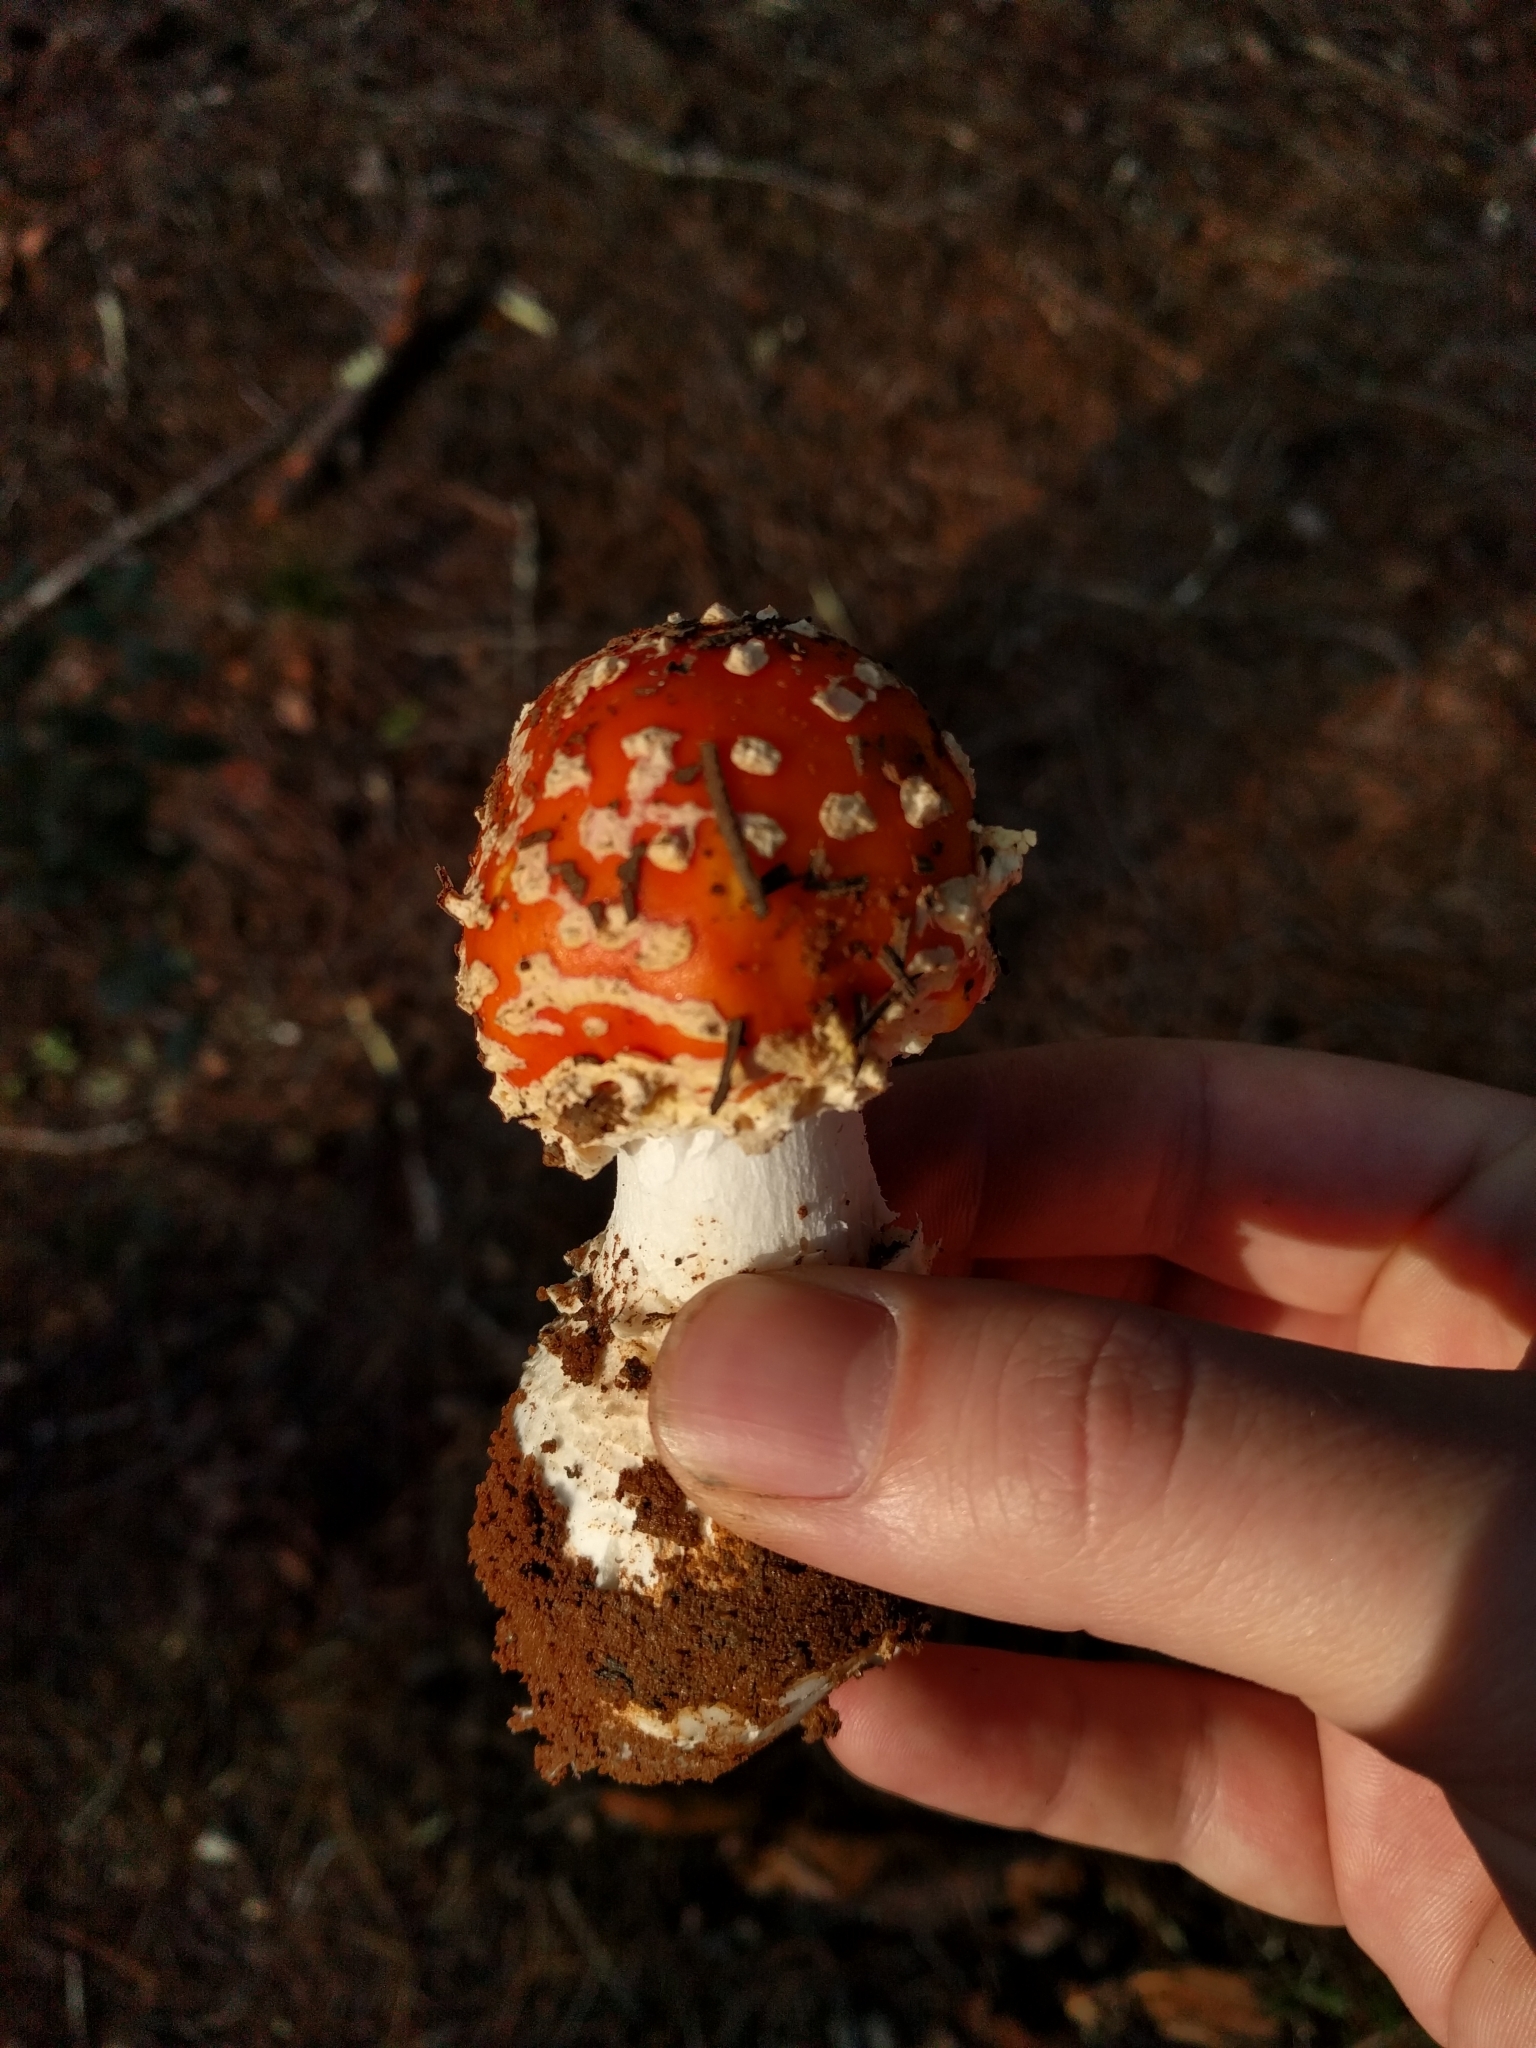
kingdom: Fungi
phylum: Basidiomycota
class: Agaricomycetes
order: Agaricales
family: Amanitaceae
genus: Amanita
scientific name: Amanita muscaria
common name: Fly agaric
